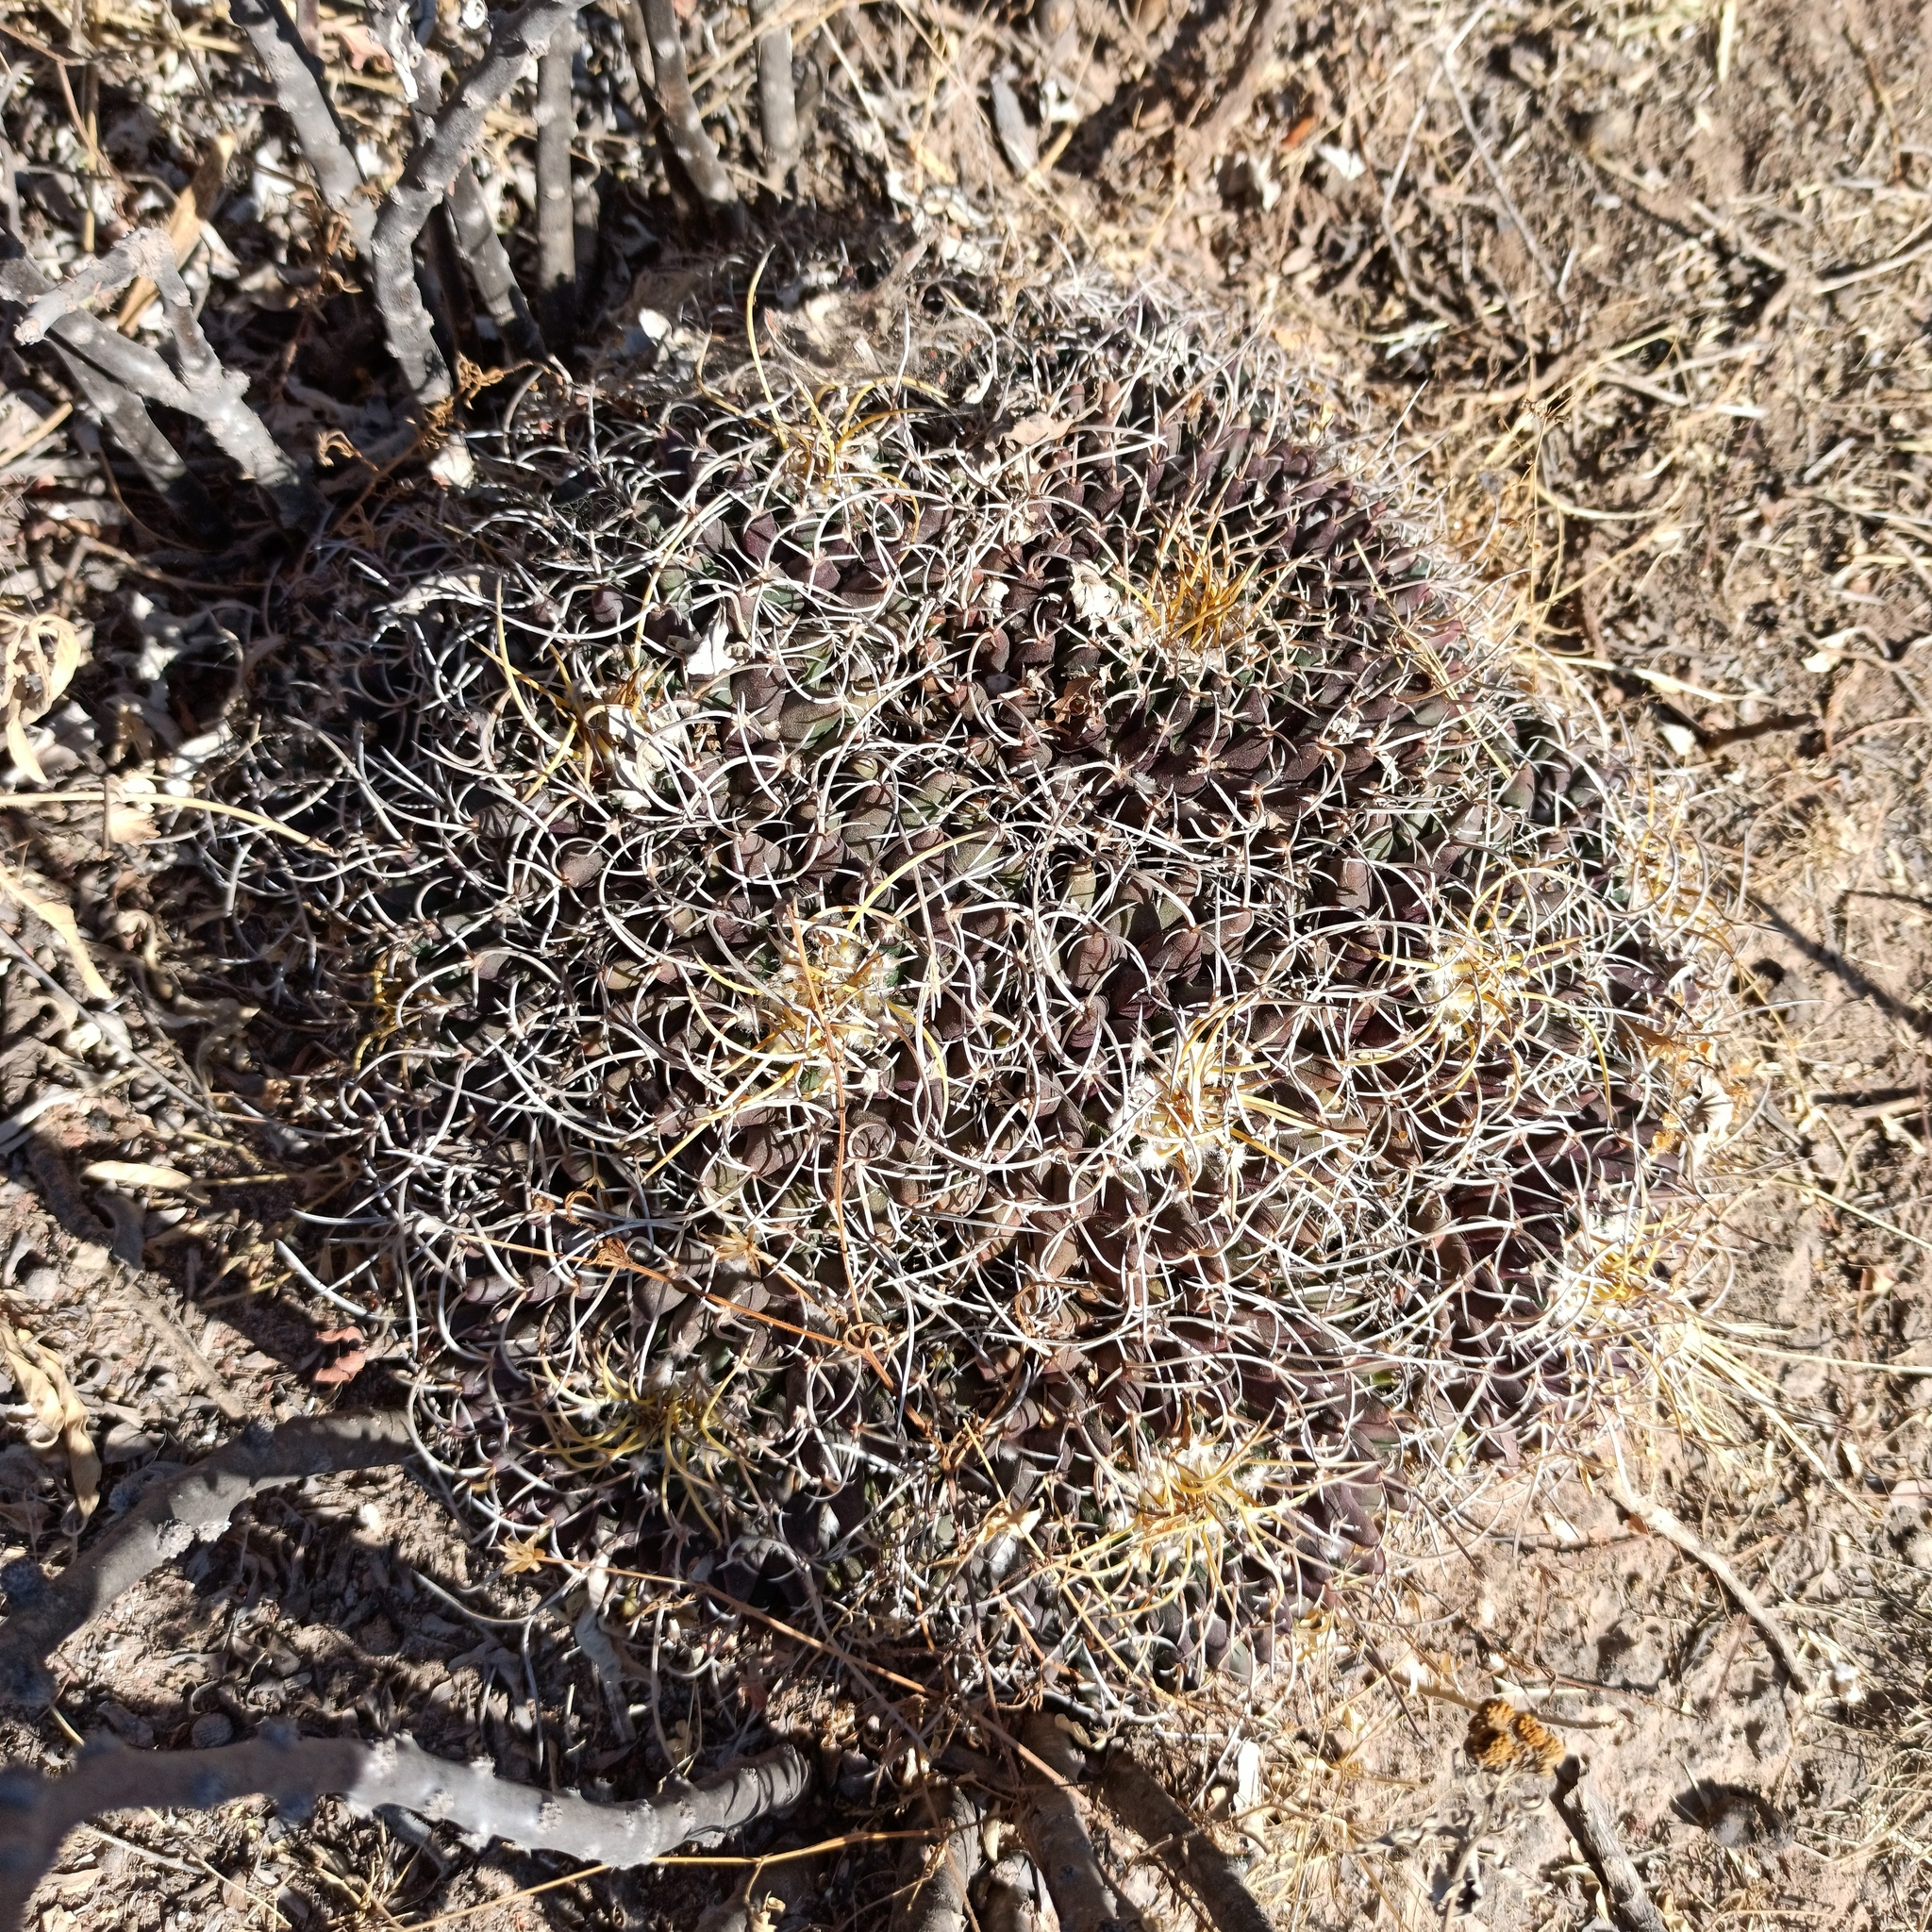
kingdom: Plantae
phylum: Tracheophyta
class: Magnoliopsida
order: Caryophyllales
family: Cactaceae
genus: Mammillaria
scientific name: Mammillaria magnimamma
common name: Mexican pincushion
